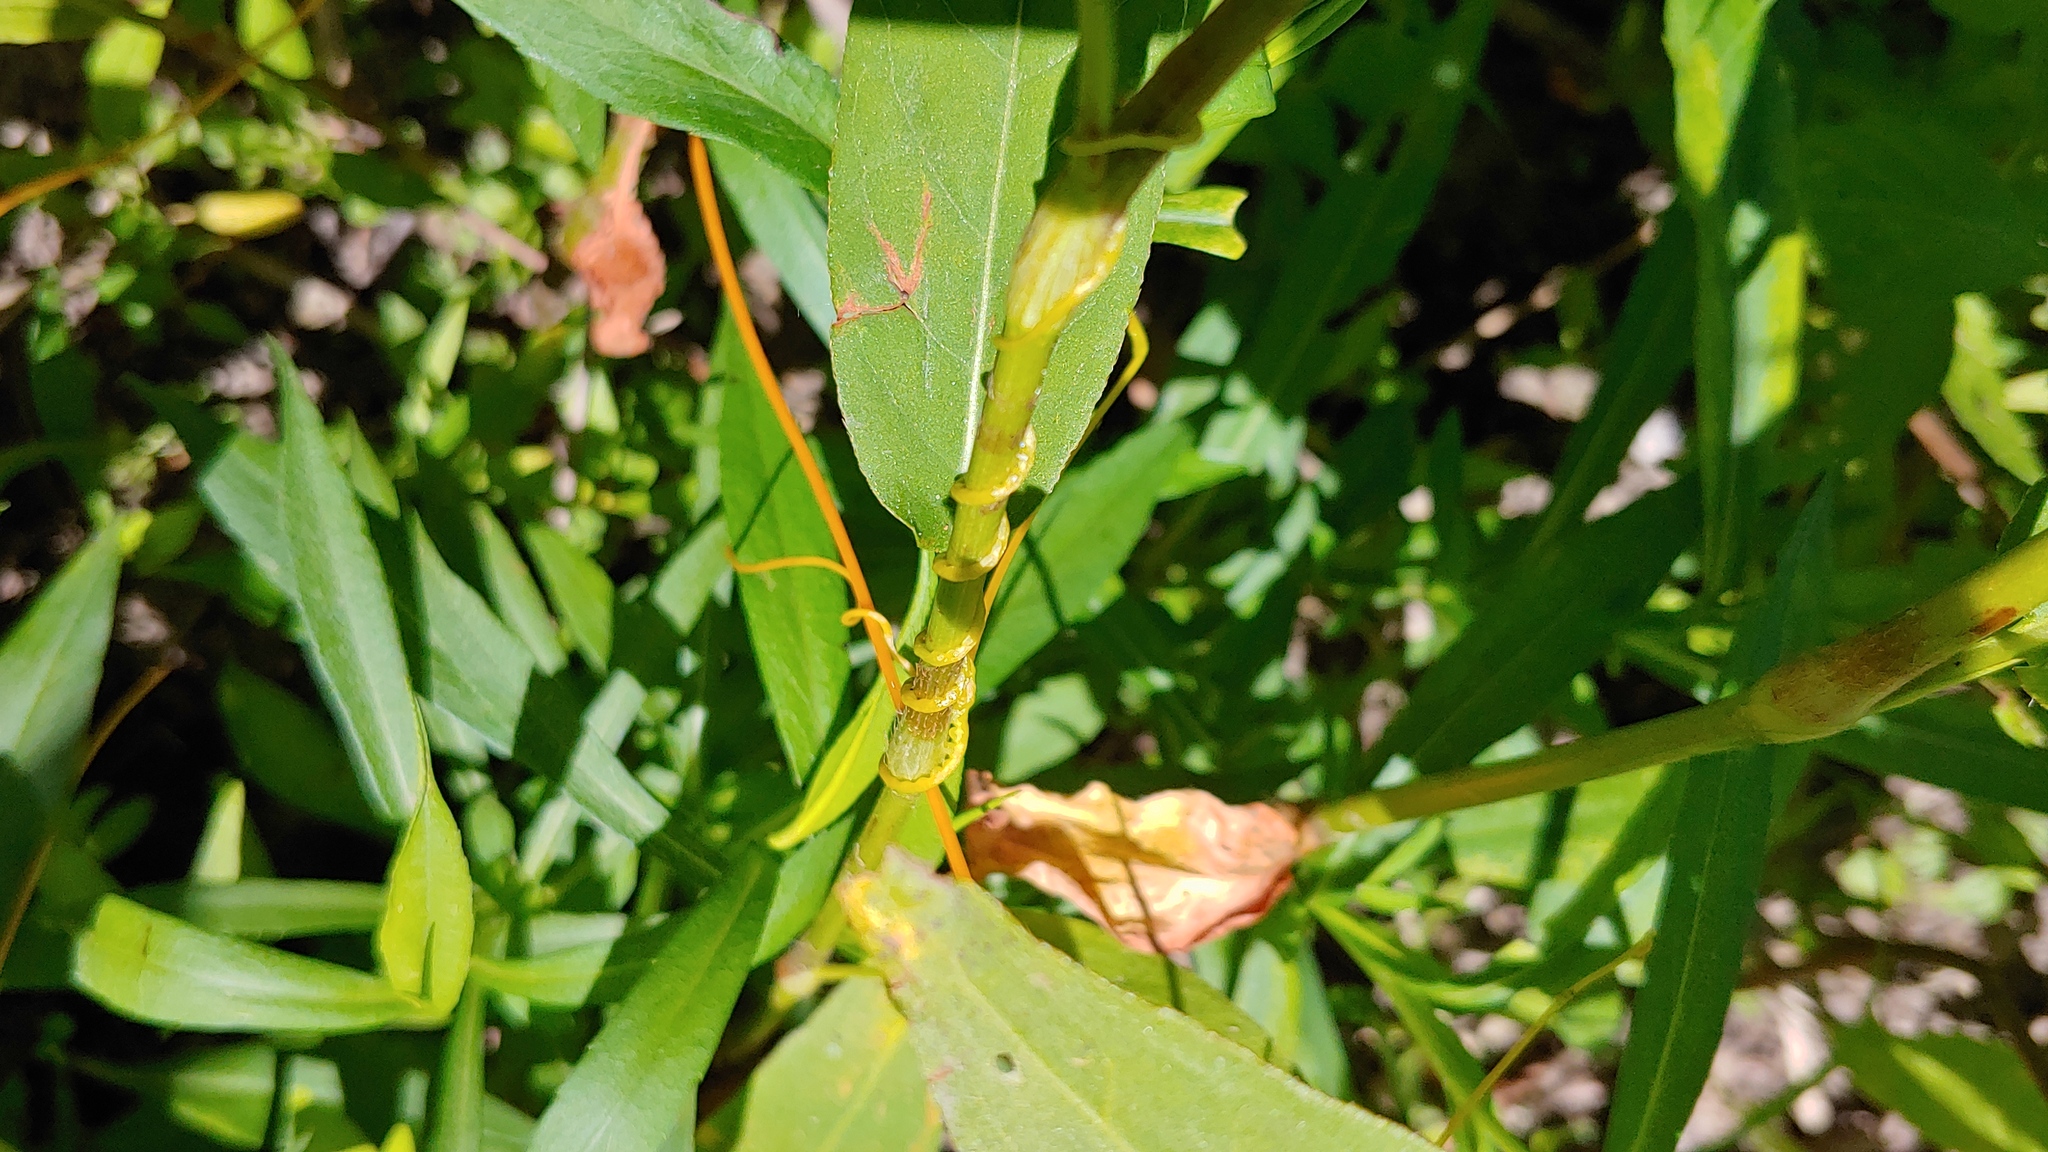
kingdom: Plantae
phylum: Tracheophyta
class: Magnoliopsida
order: Solanales
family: Convolvulaceae
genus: Cuscuta
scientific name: Cuscuta gronovii
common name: Common dodder
